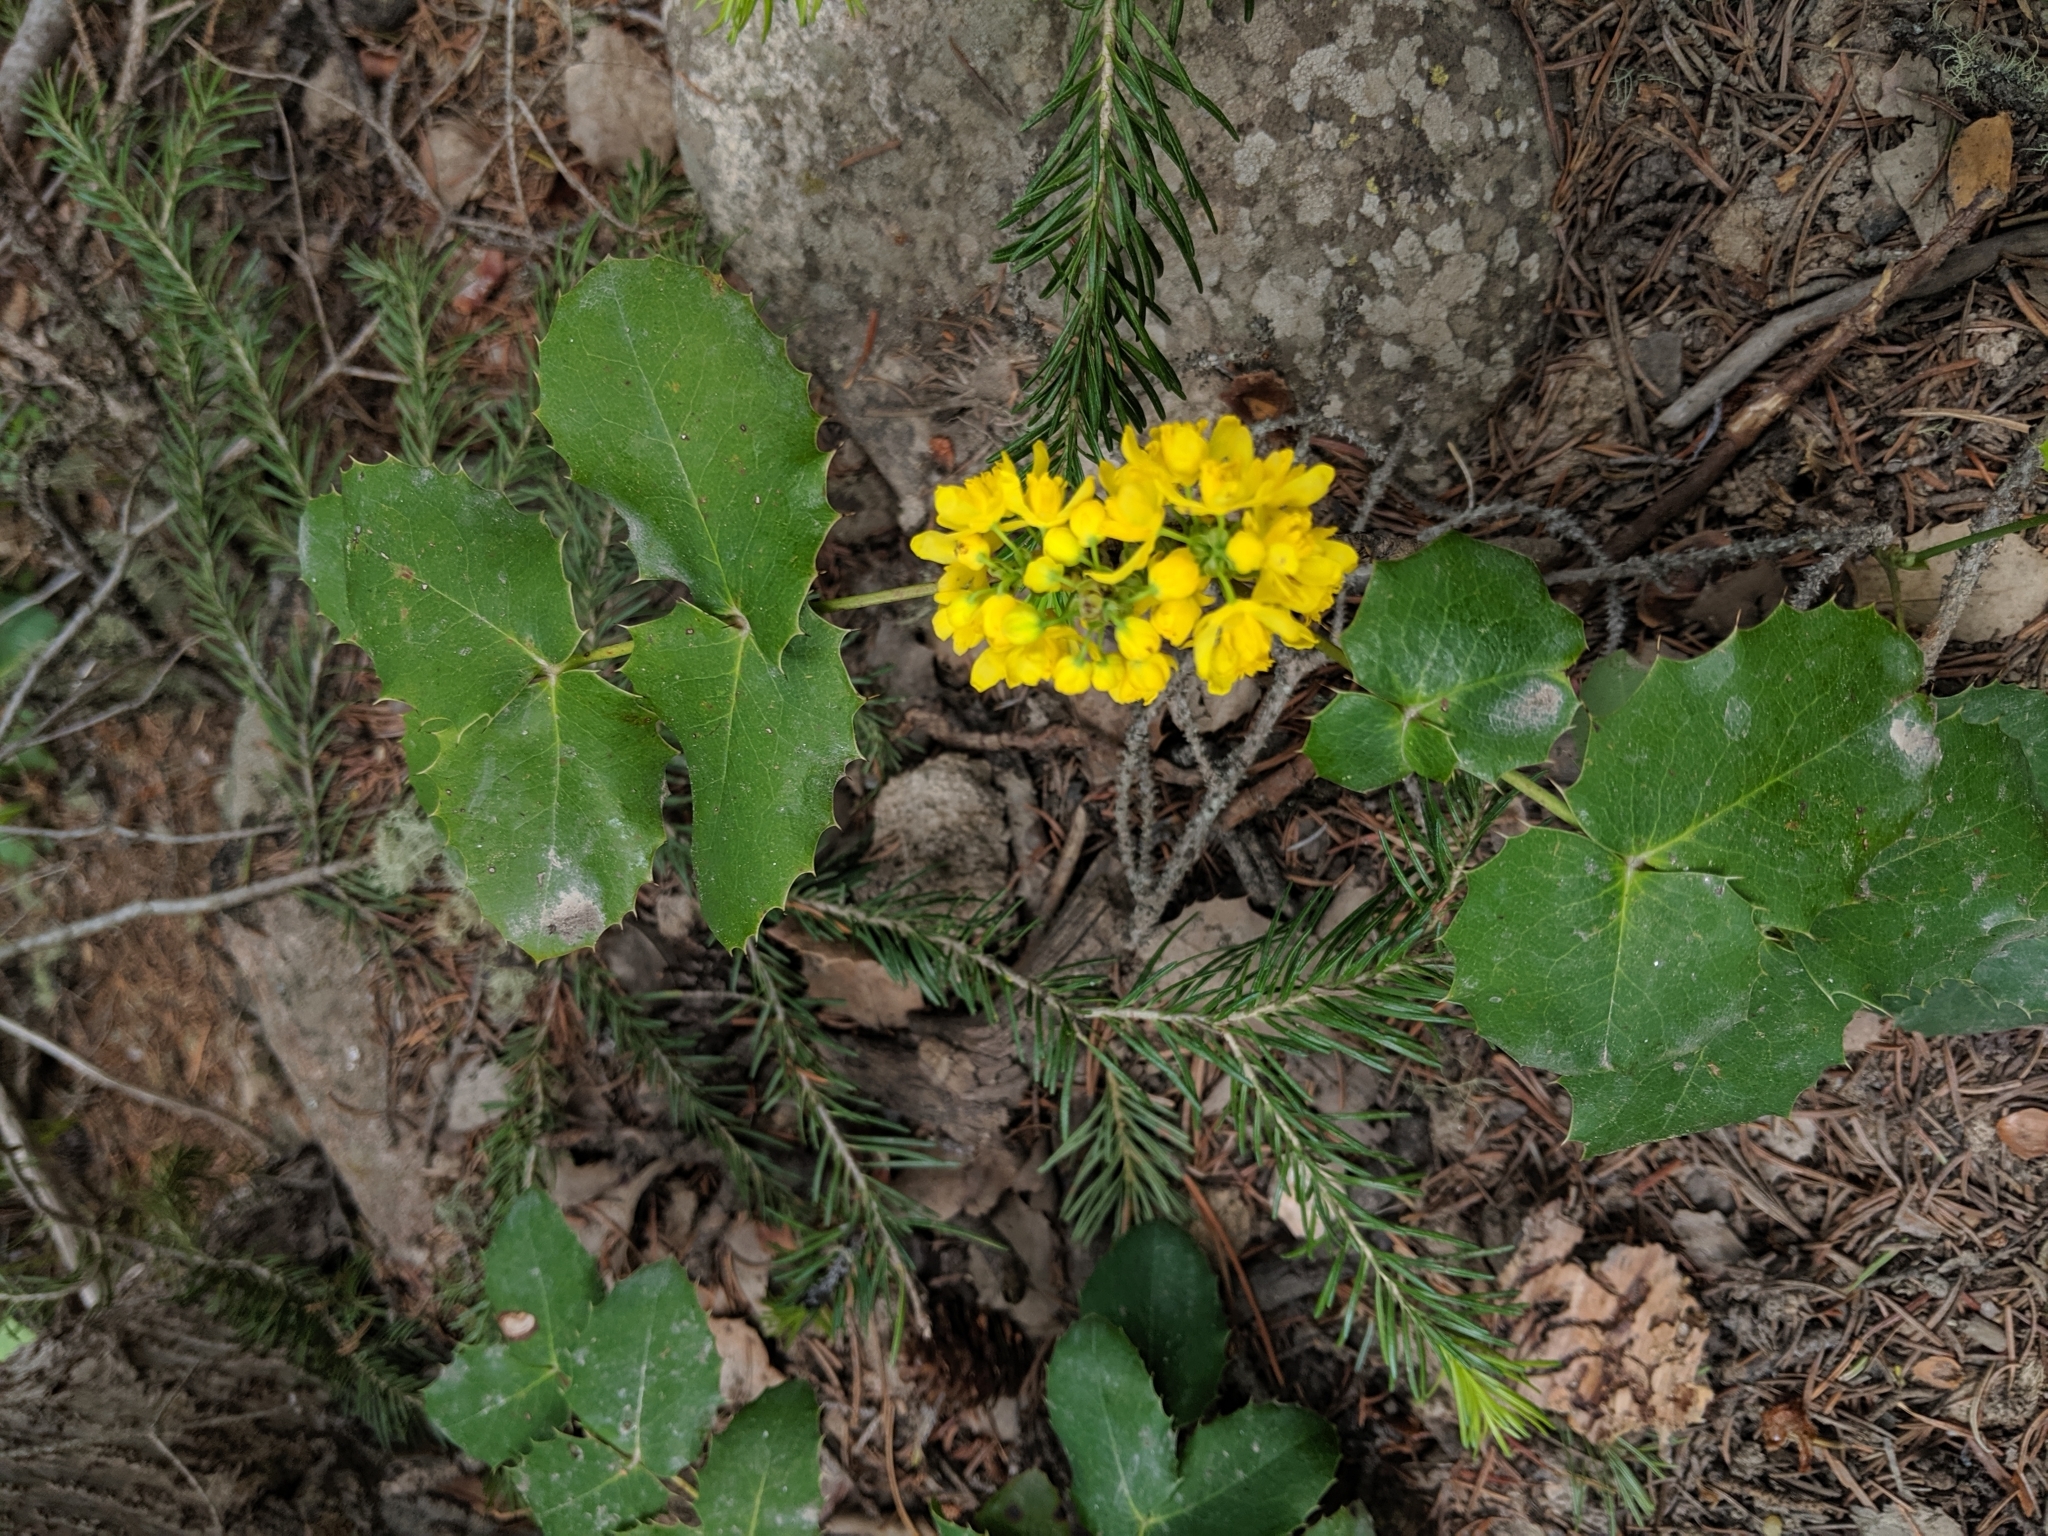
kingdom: Plantae
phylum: Tracheophyta
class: Magnoliopsida
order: Ranunculales
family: Berberidaceae
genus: Mahonia
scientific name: Mahonia repens
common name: Creeping oregon-grape
